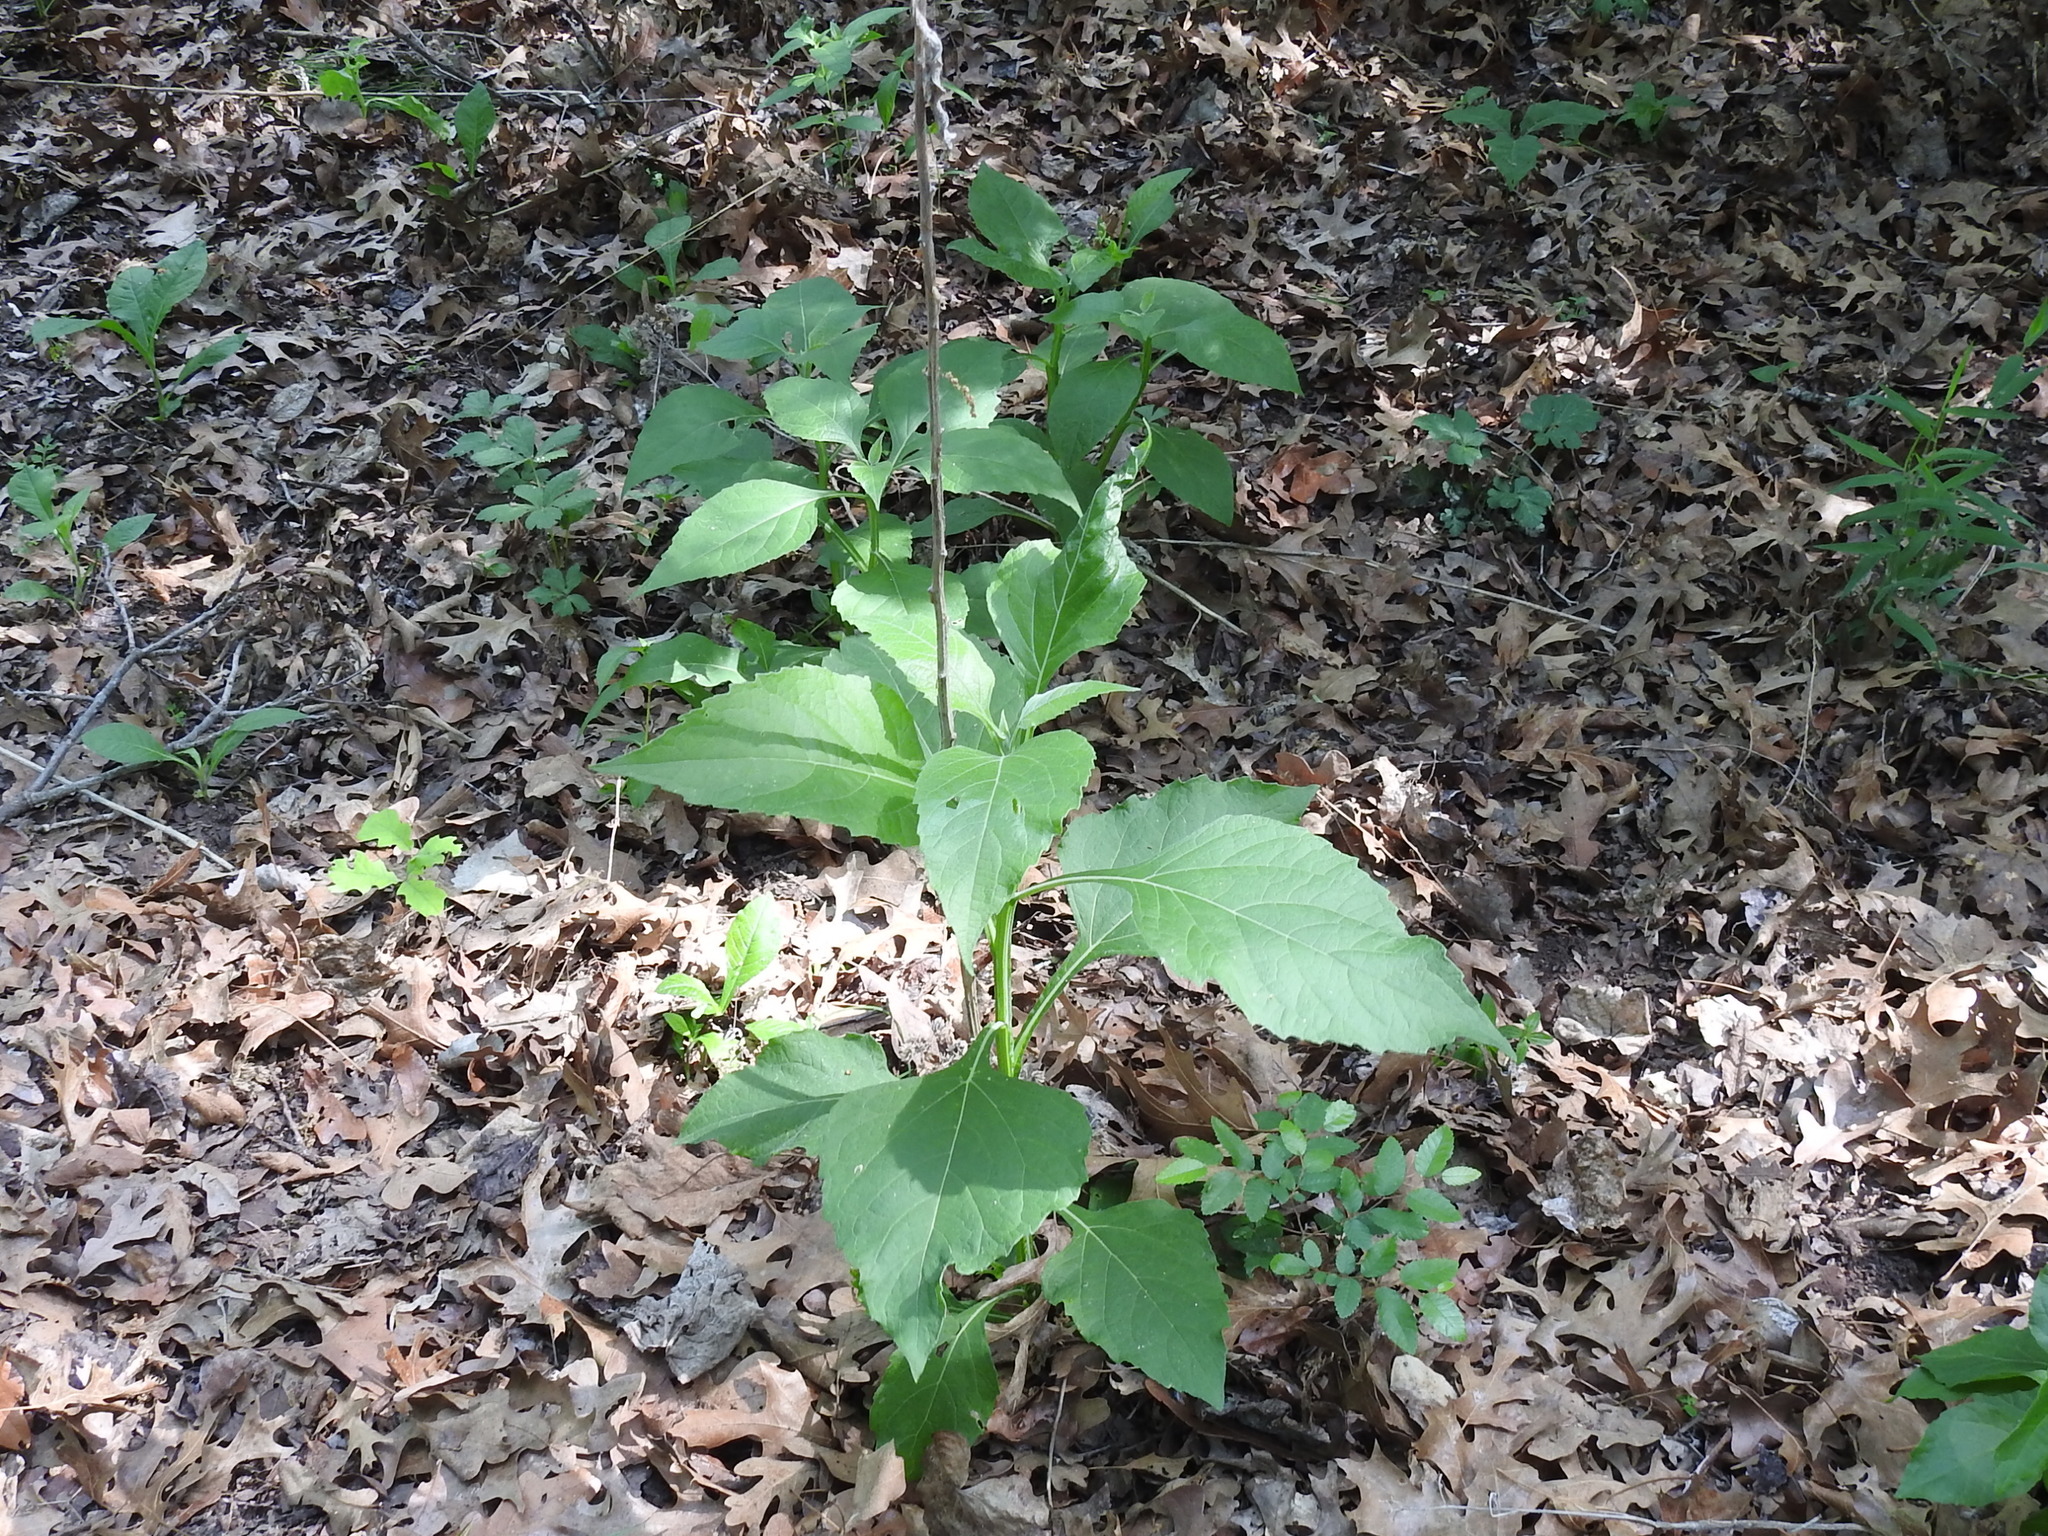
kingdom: Plantae
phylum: Tracheophyta
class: Magnoliopsida
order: Asterales
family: Asteraceae
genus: Verbesina
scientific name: Verbesina virginica
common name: Frostweed
